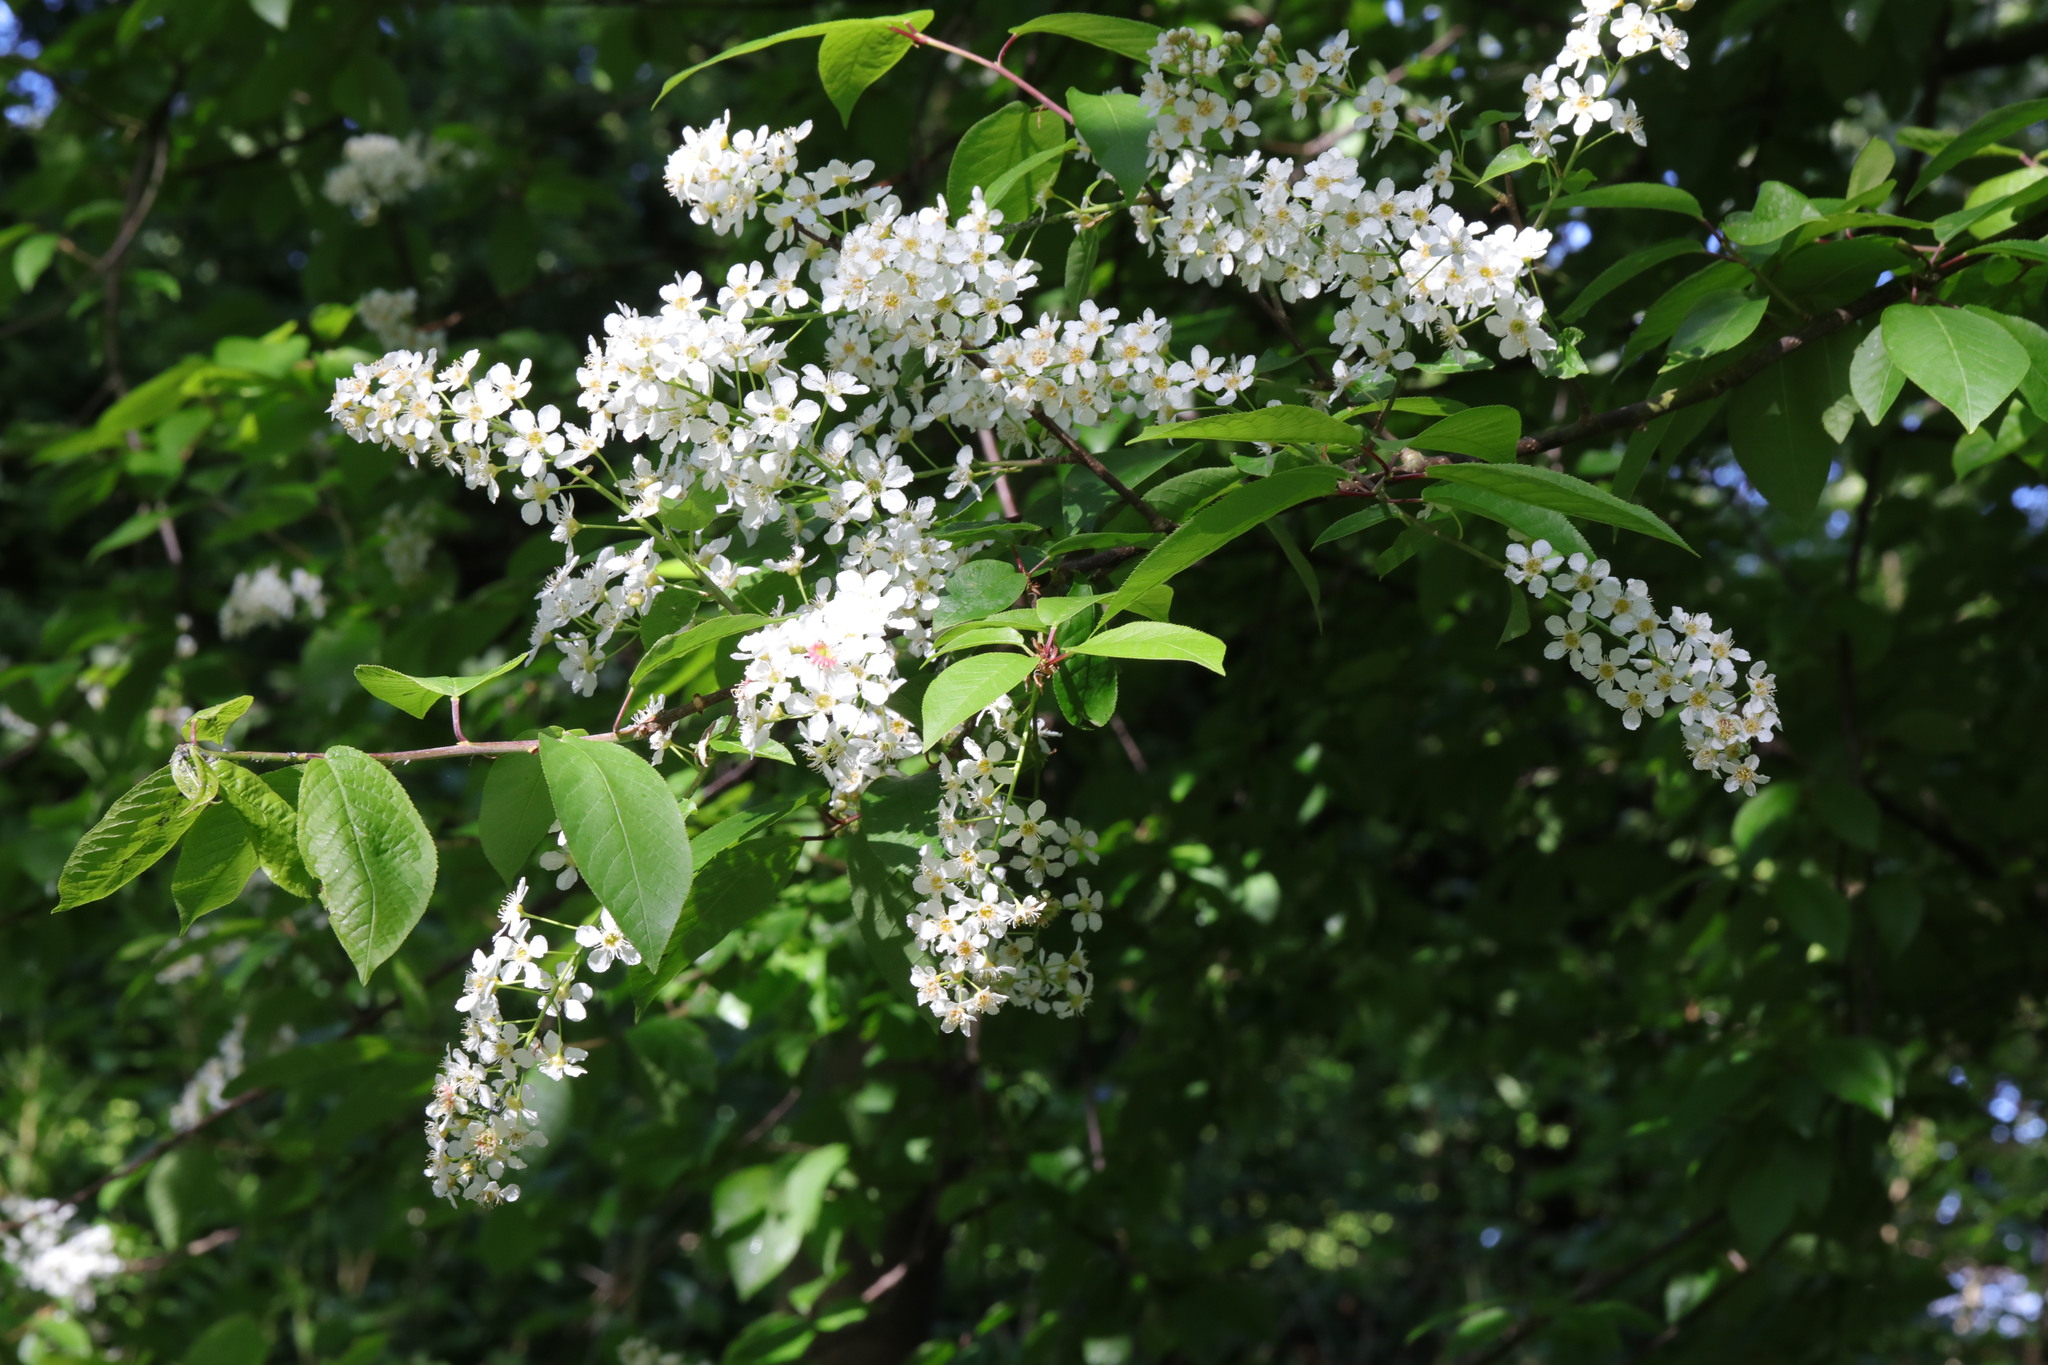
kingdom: Plantae
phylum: Tracheophyta
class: Magnoliopsida
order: Rosales
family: Rosaceae
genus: Prunus
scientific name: Prunus padus
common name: Bird cherry
